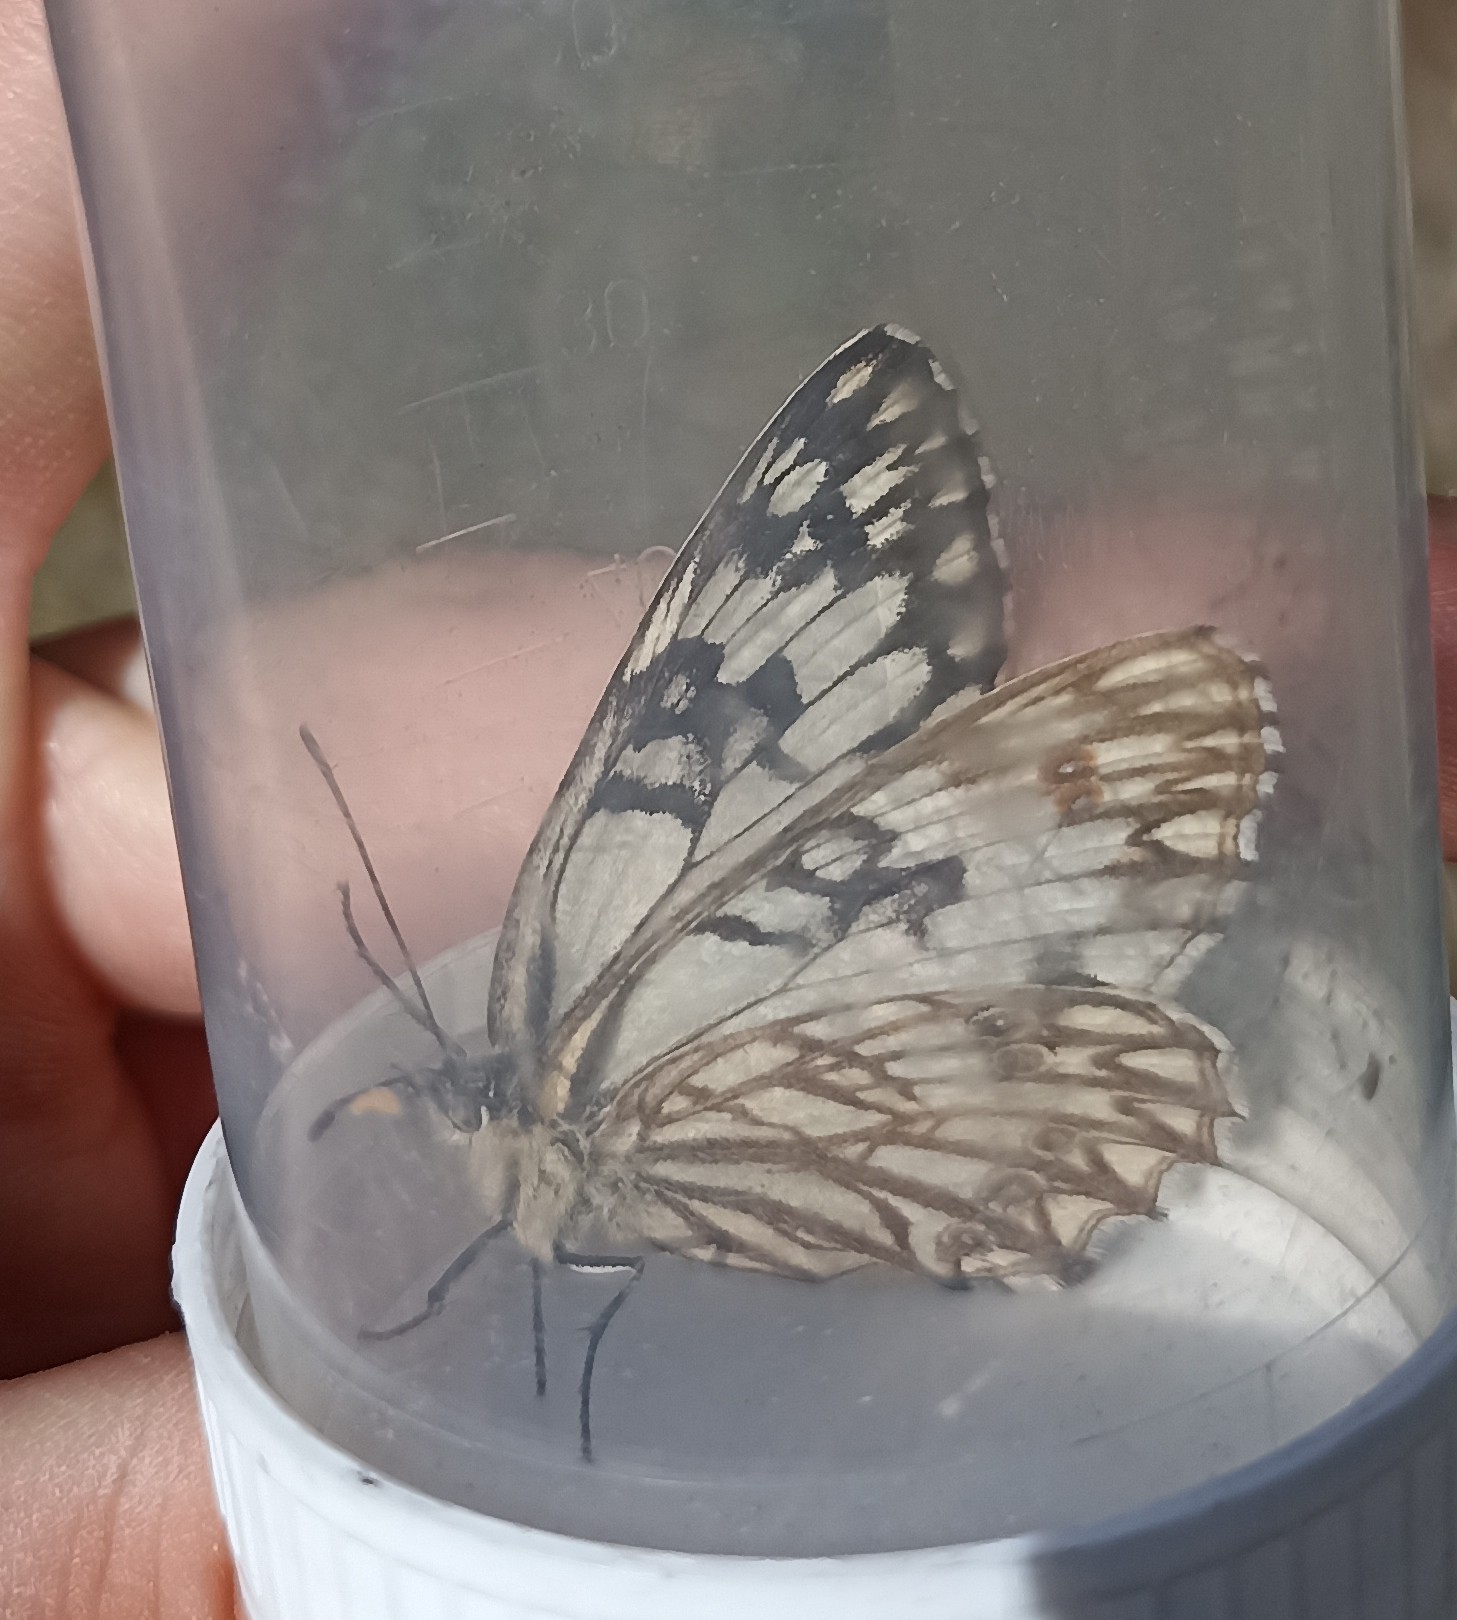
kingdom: Animalia
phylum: Arthropoda
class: Insecta
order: Lepidoptera
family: Nymphalidae
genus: Melanargia
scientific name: Melanargia occitanica
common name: Western marbled white
